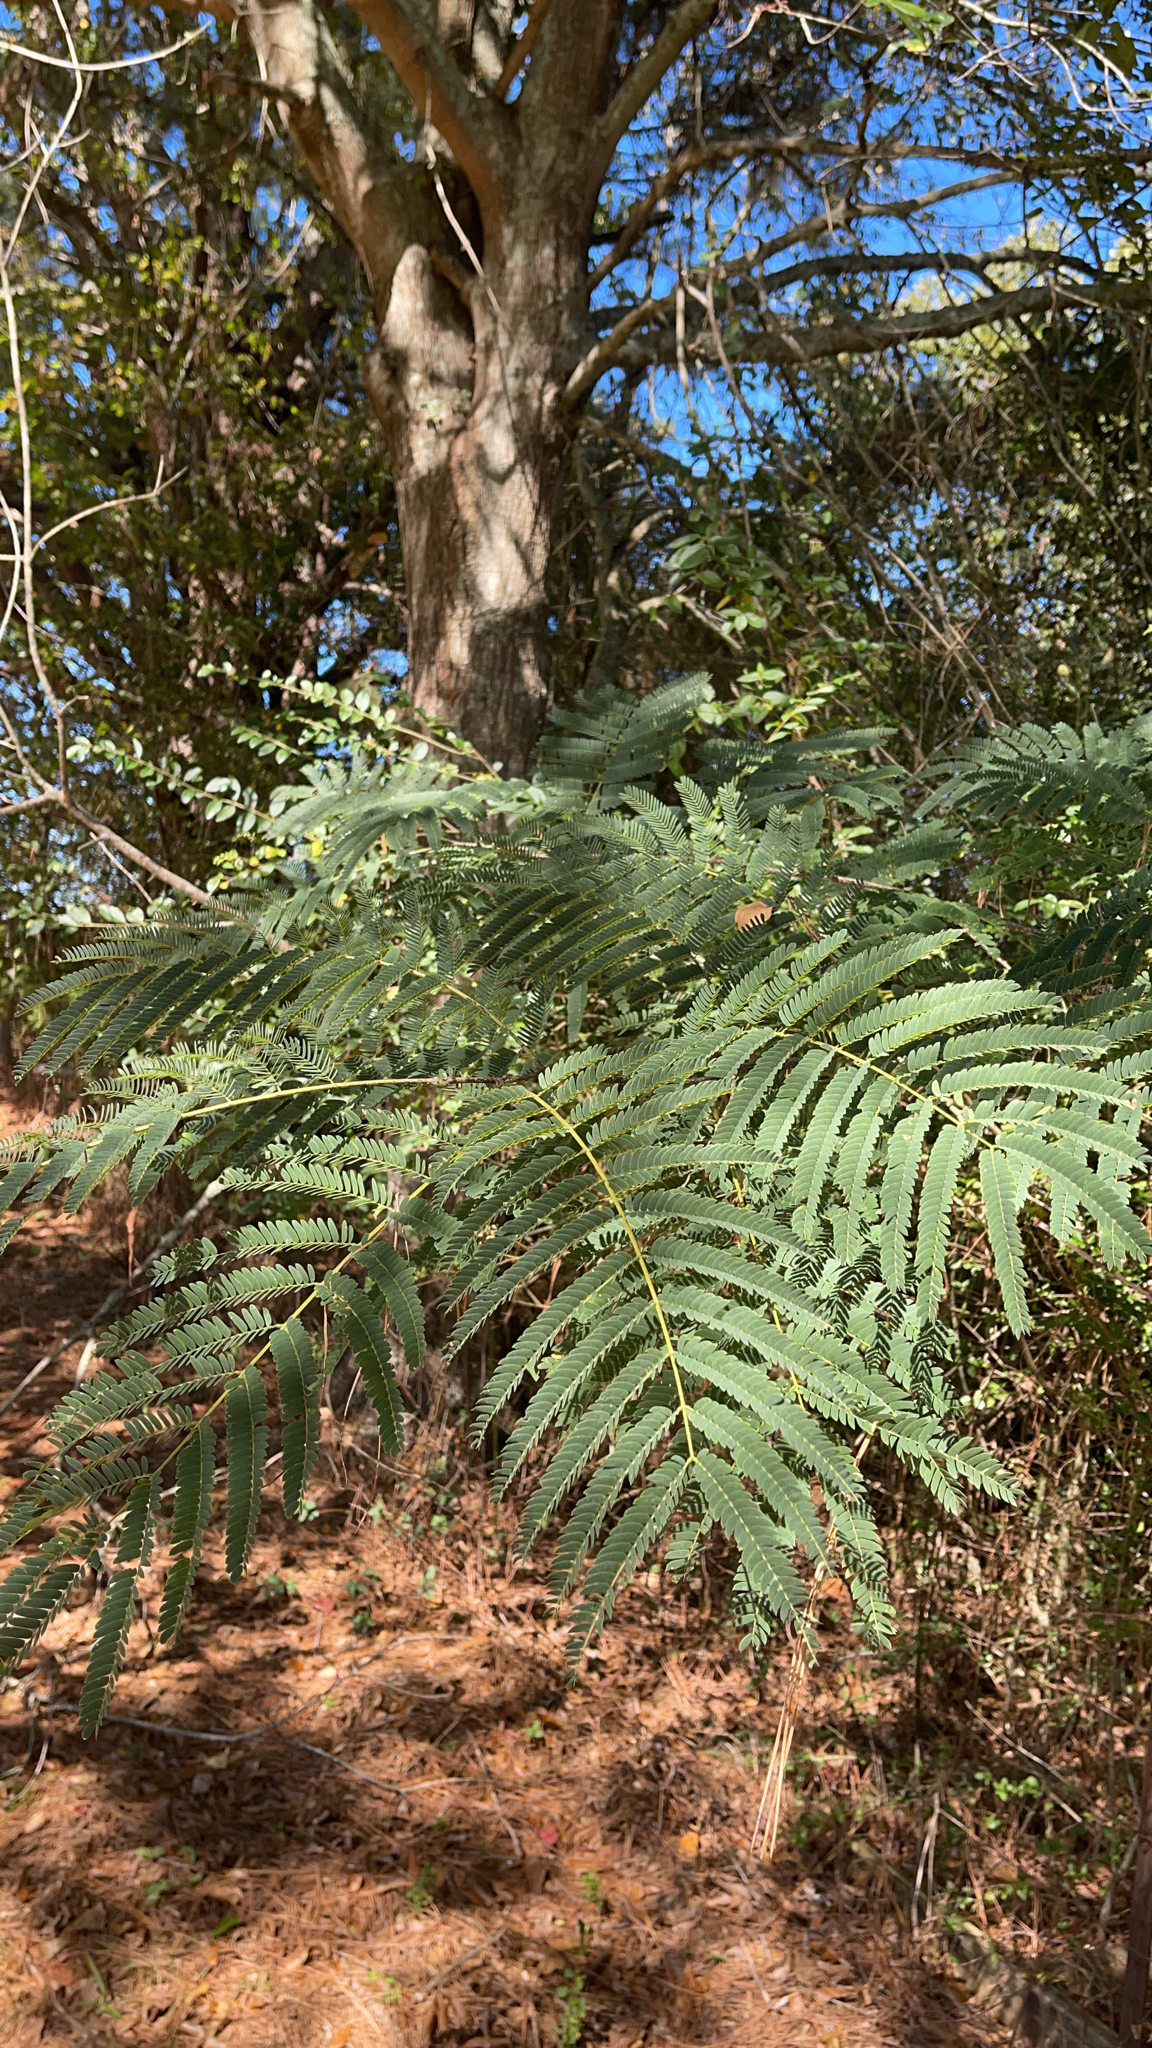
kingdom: Plantae
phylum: Tracheophyta
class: Magnoliopsida
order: Fabales
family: Fabaceae
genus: Albizia
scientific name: Albizia julibrissin
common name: Silktree
